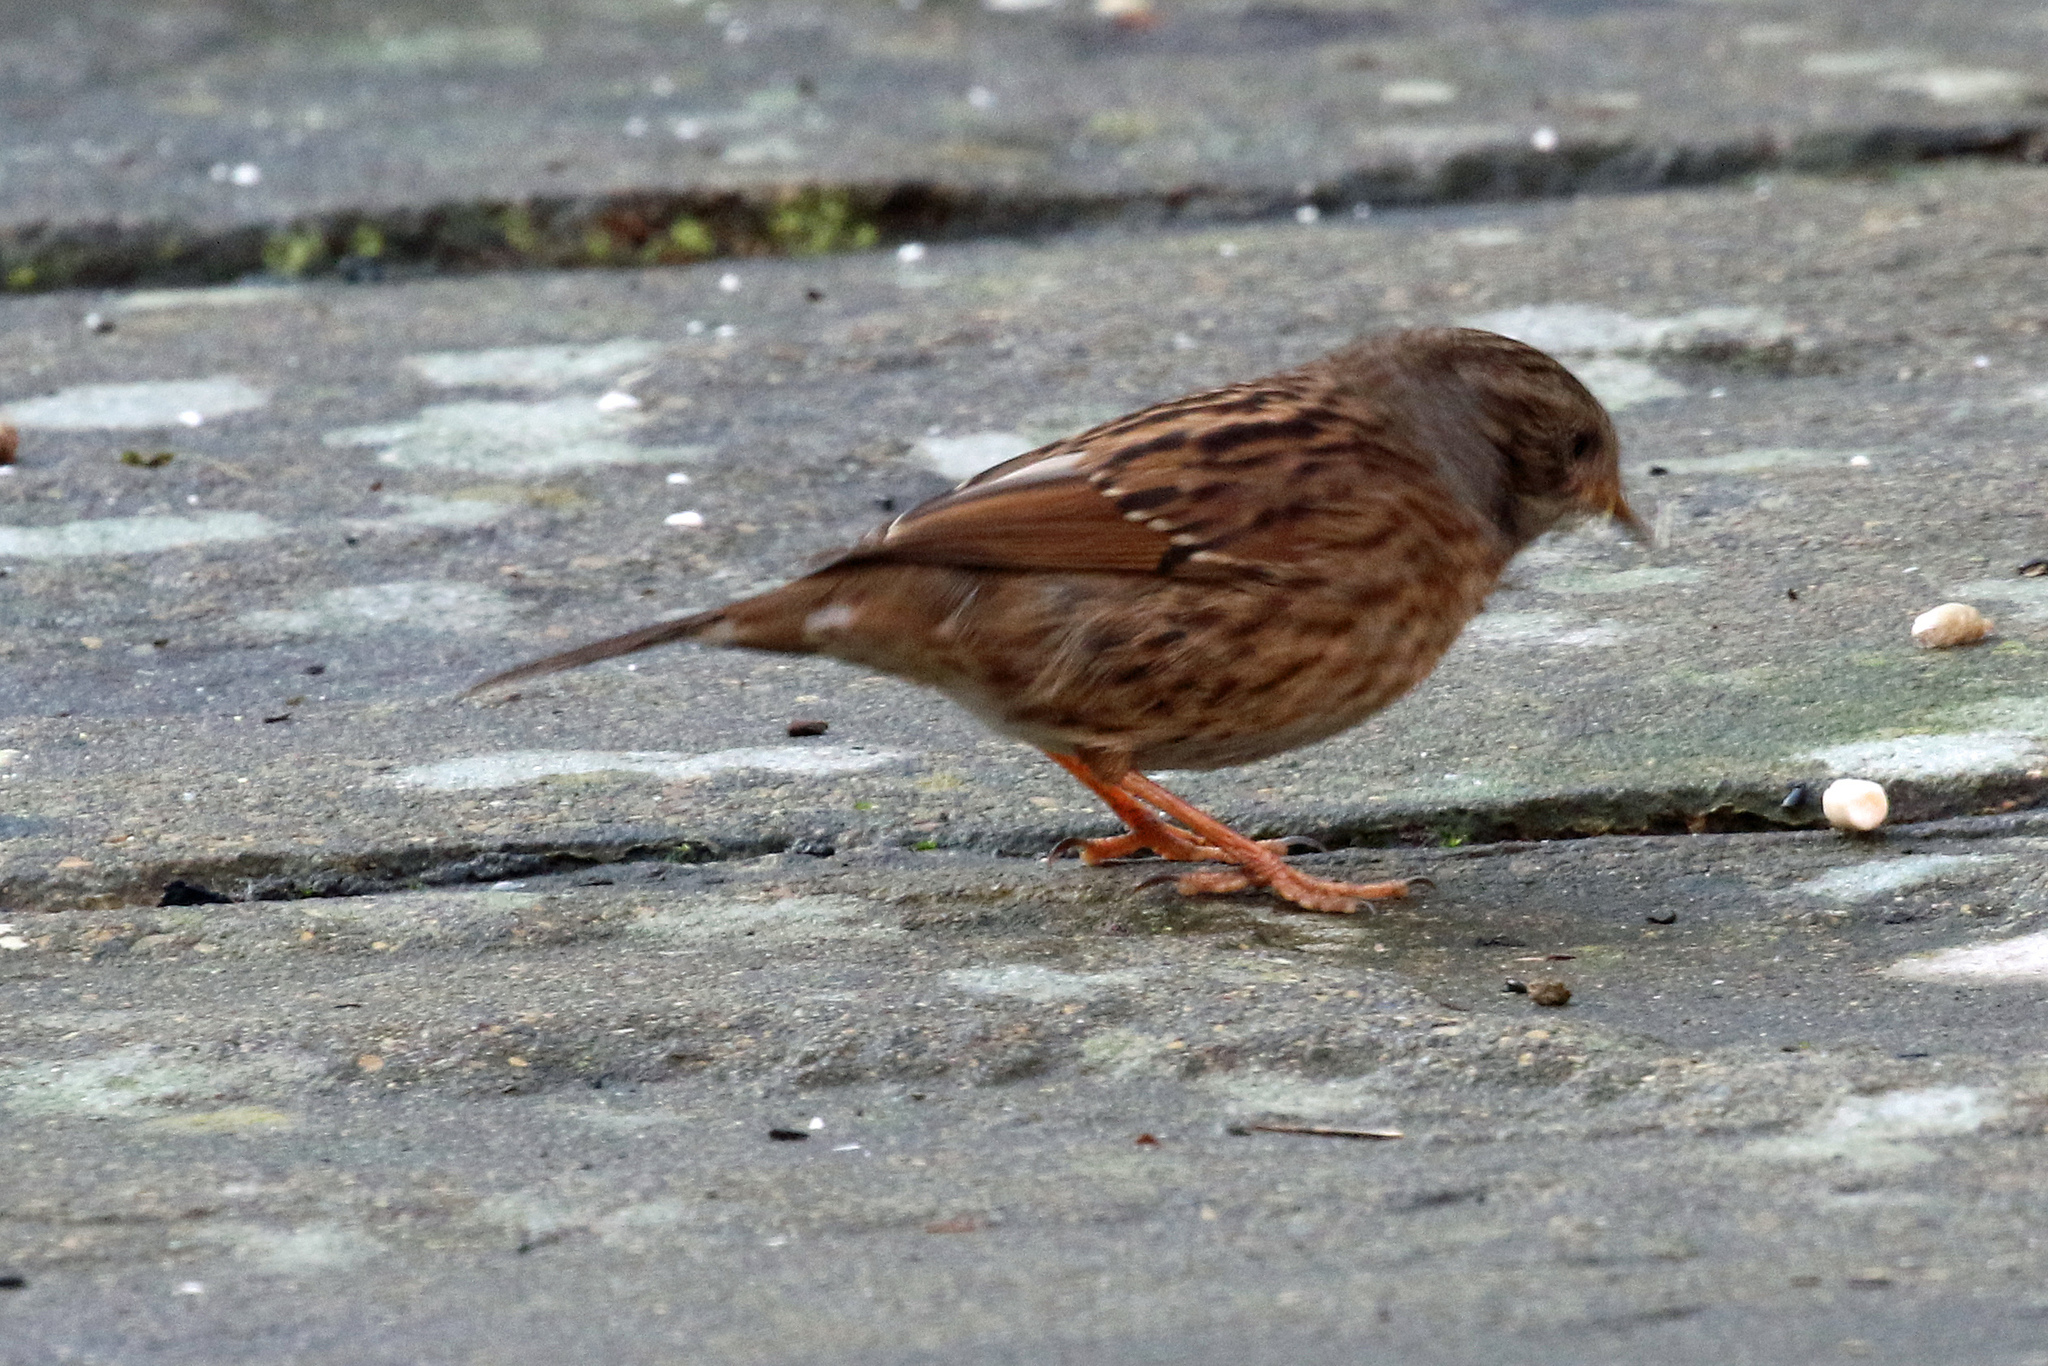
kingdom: Animalia
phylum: Chordata
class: Aves
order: Passeriformes
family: Prunellidae
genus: Prunella
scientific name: Prunella modularis
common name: Dunnock
